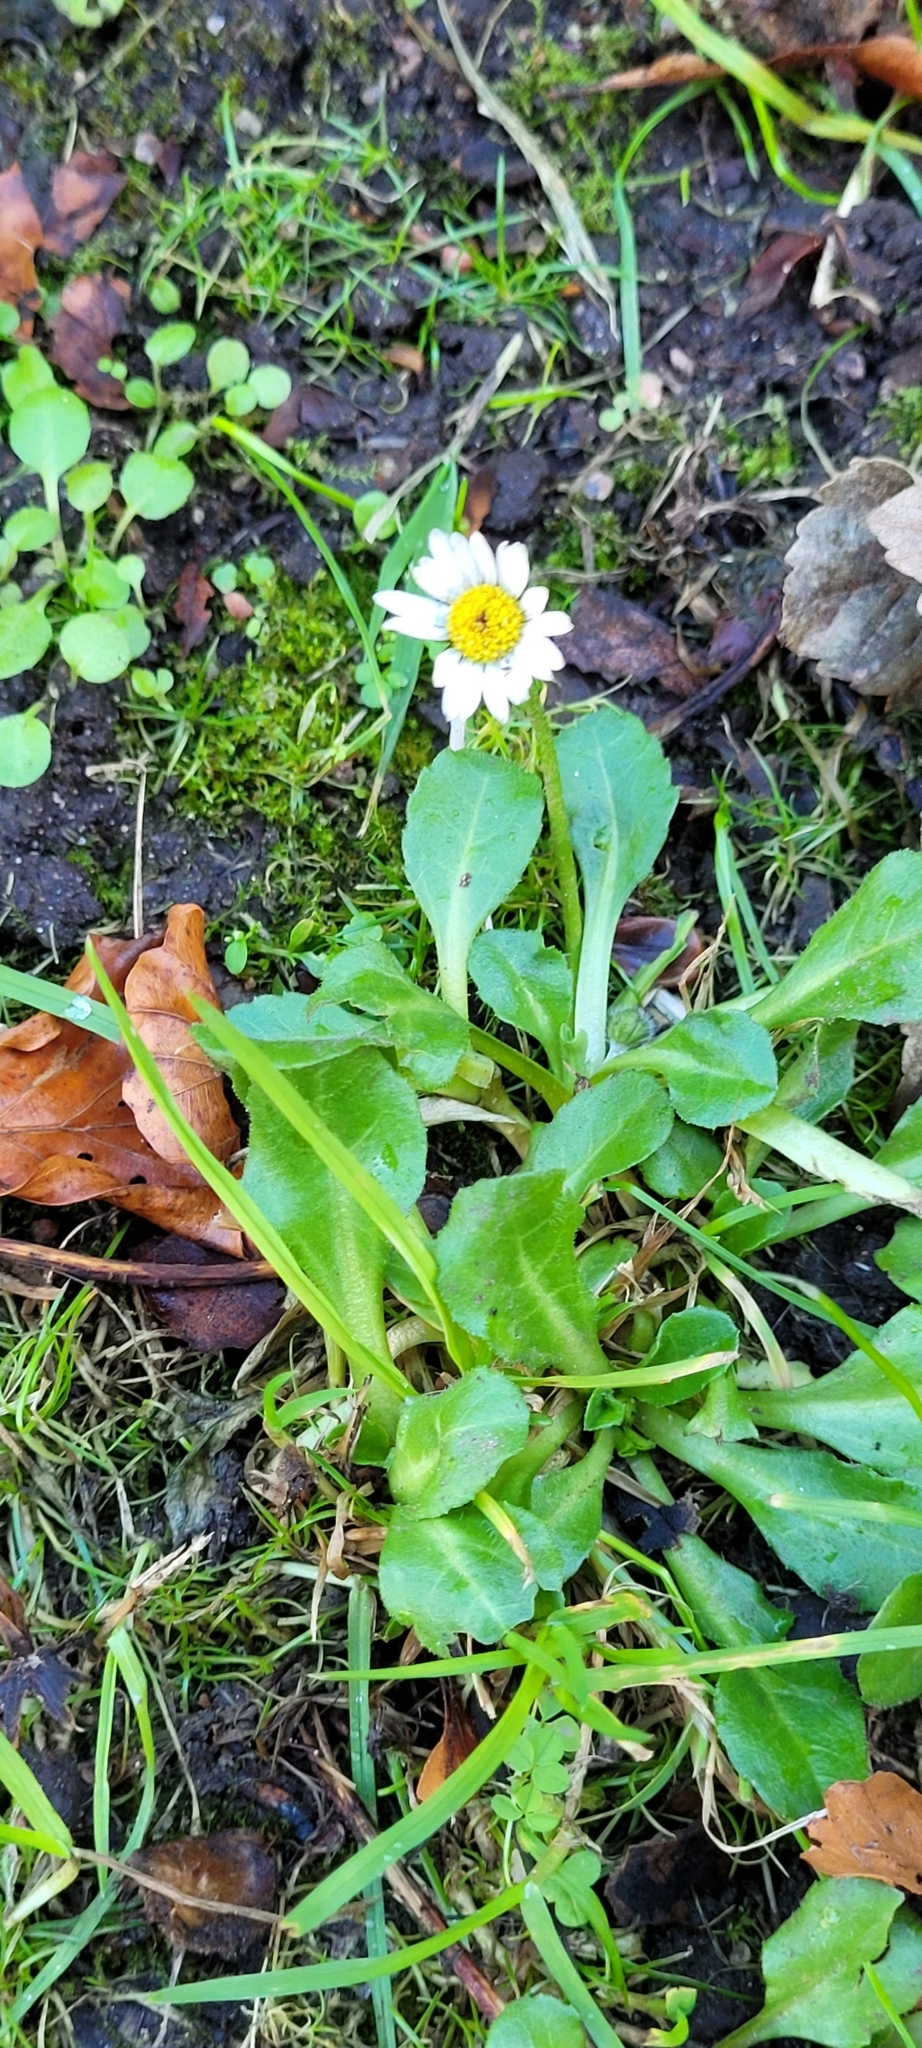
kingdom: Plantae
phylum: Tracheophyta
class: Magnoliopsida
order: Asterales
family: Asteraceae
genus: Bellis
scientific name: Bellis perennis
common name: Lawndaisy
